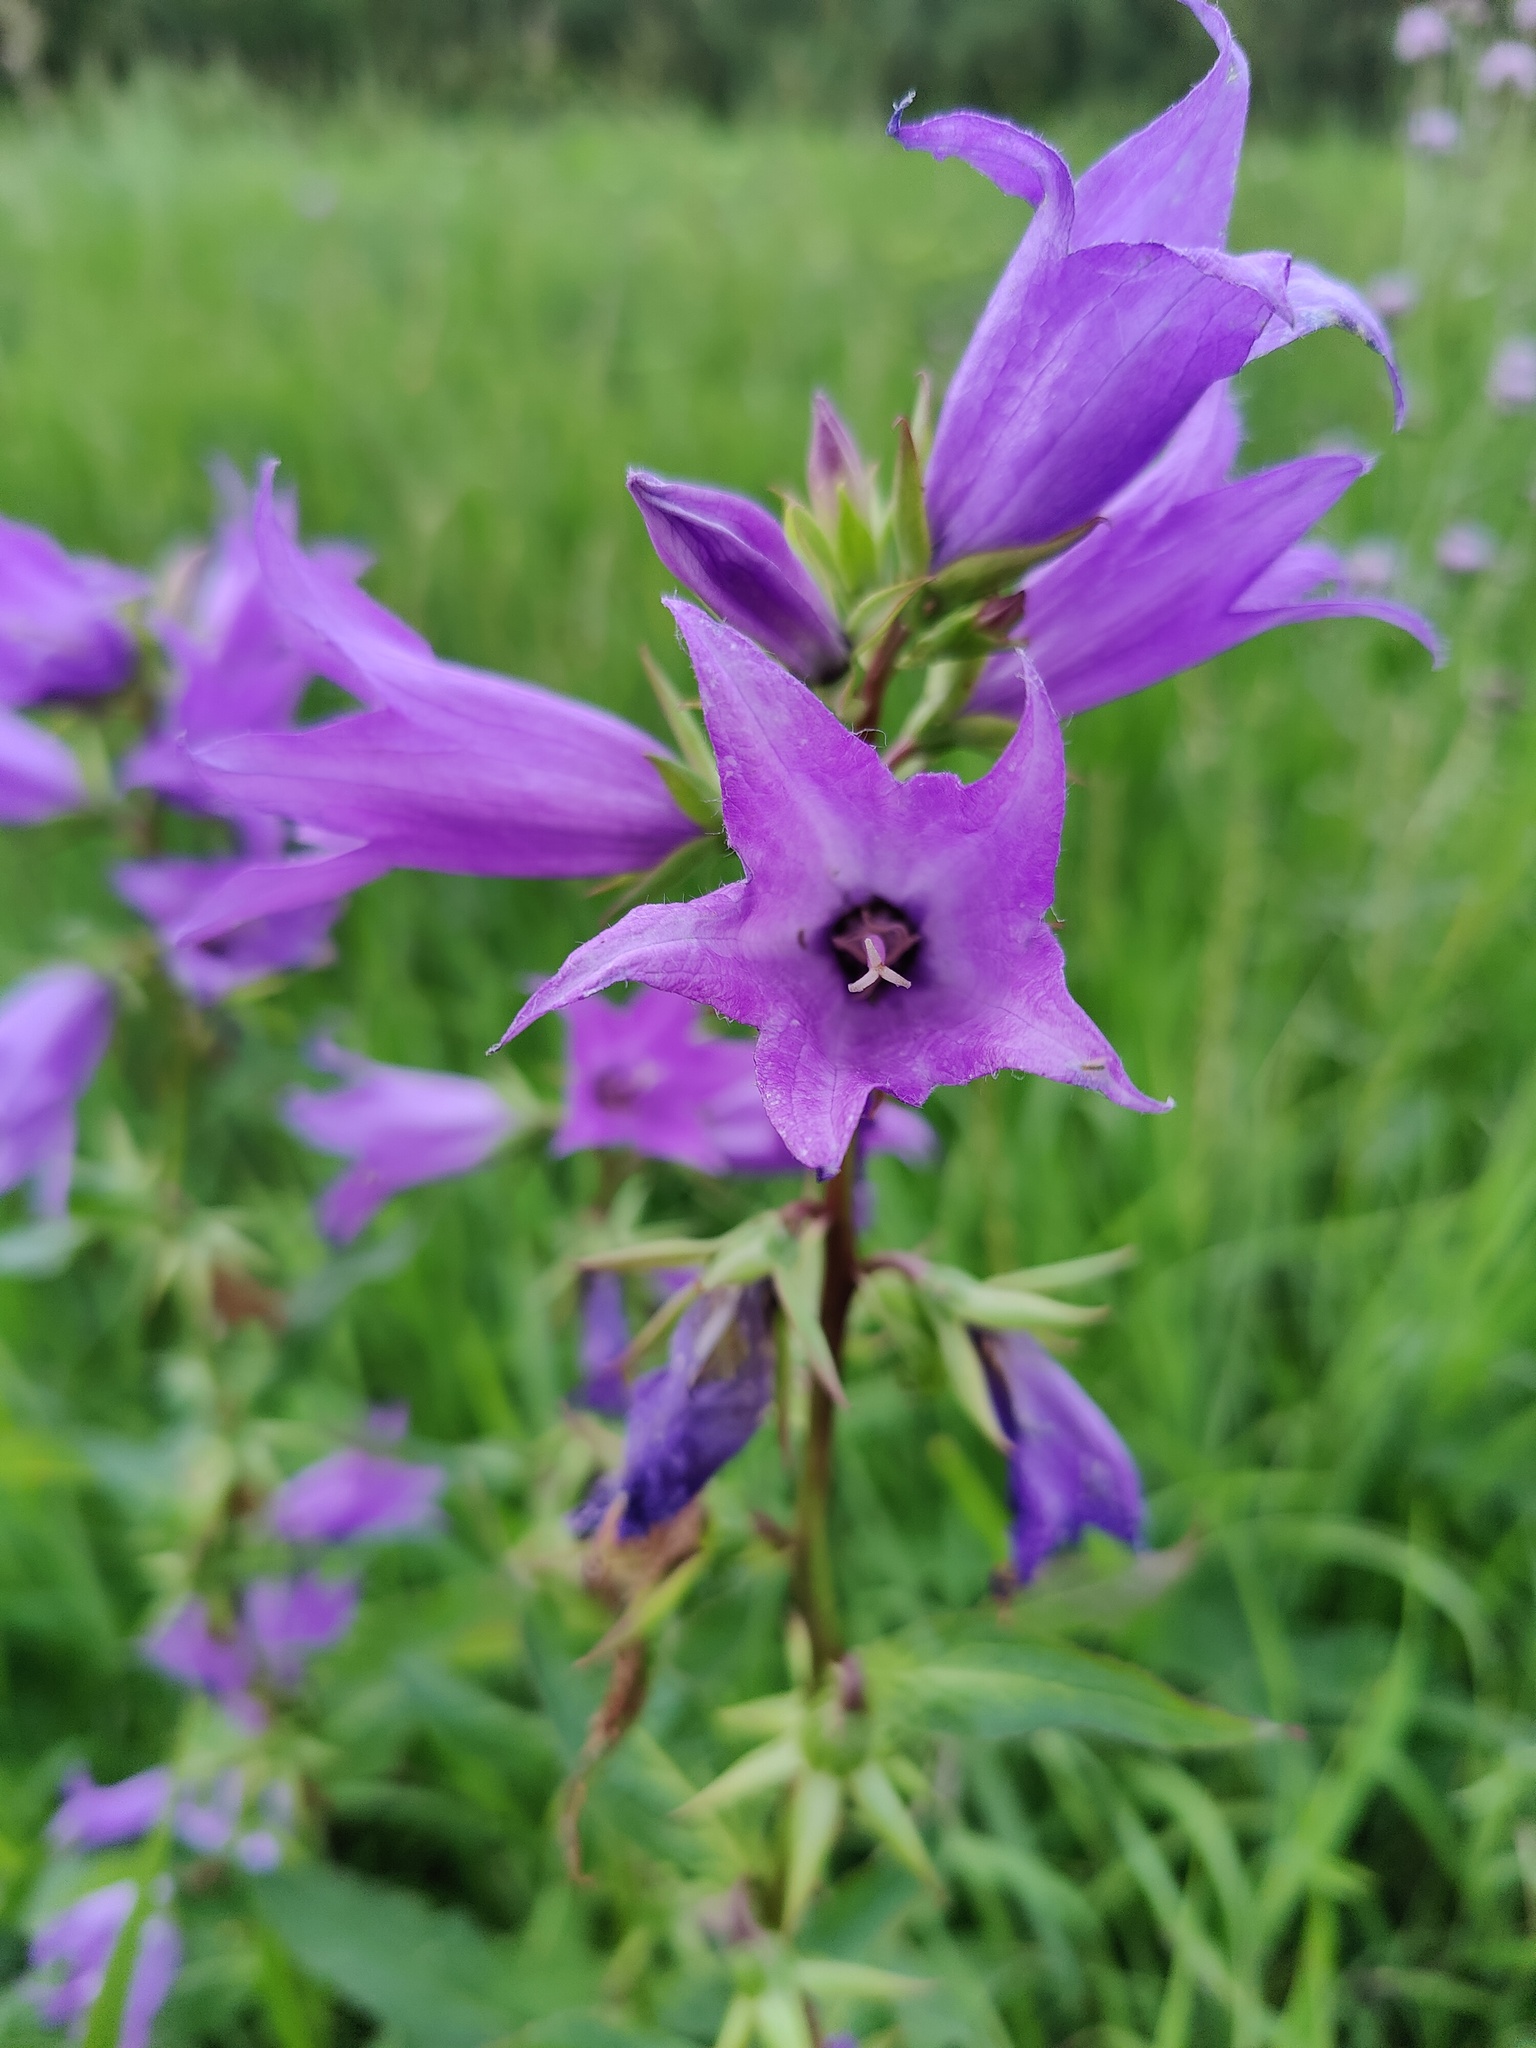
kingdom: Plantae
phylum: Tracheophyta
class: Magnoliopsida
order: Asterales
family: Campanulaceae
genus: Campanula
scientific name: Campanula latifolia
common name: Giant bellflower
